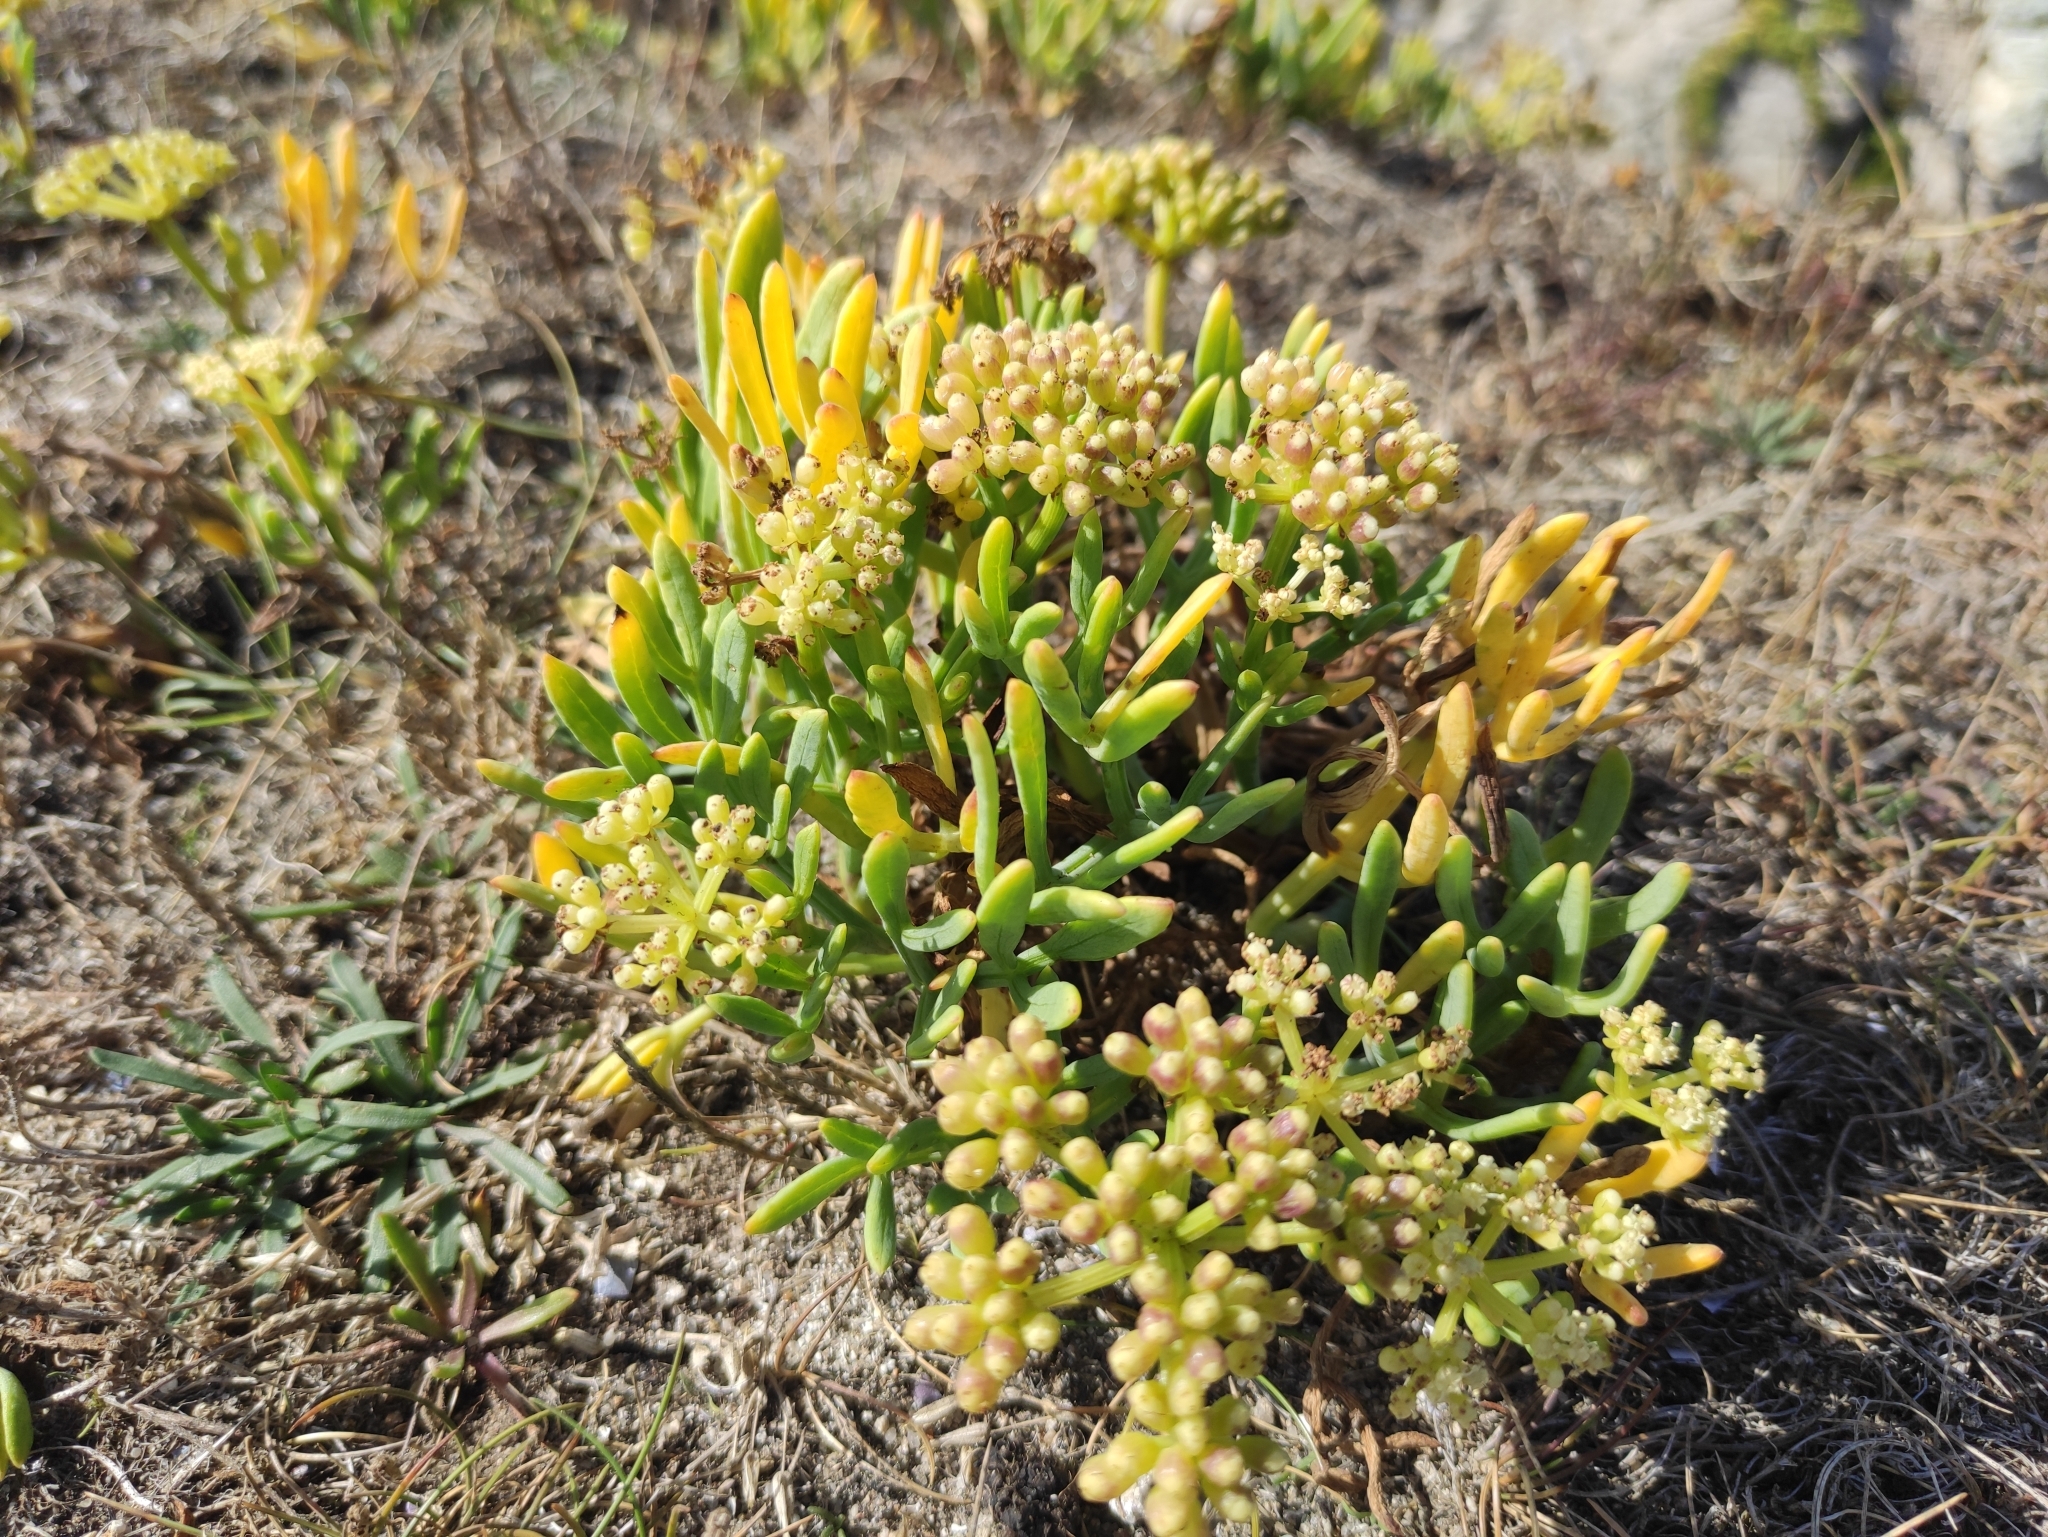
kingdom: Plantae
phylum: Tracheophyta
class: Magnoliopsida
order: Apiales
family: Apiaceae
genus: Crithmum
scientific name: Crithmum maritimum
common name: Rock samphire
